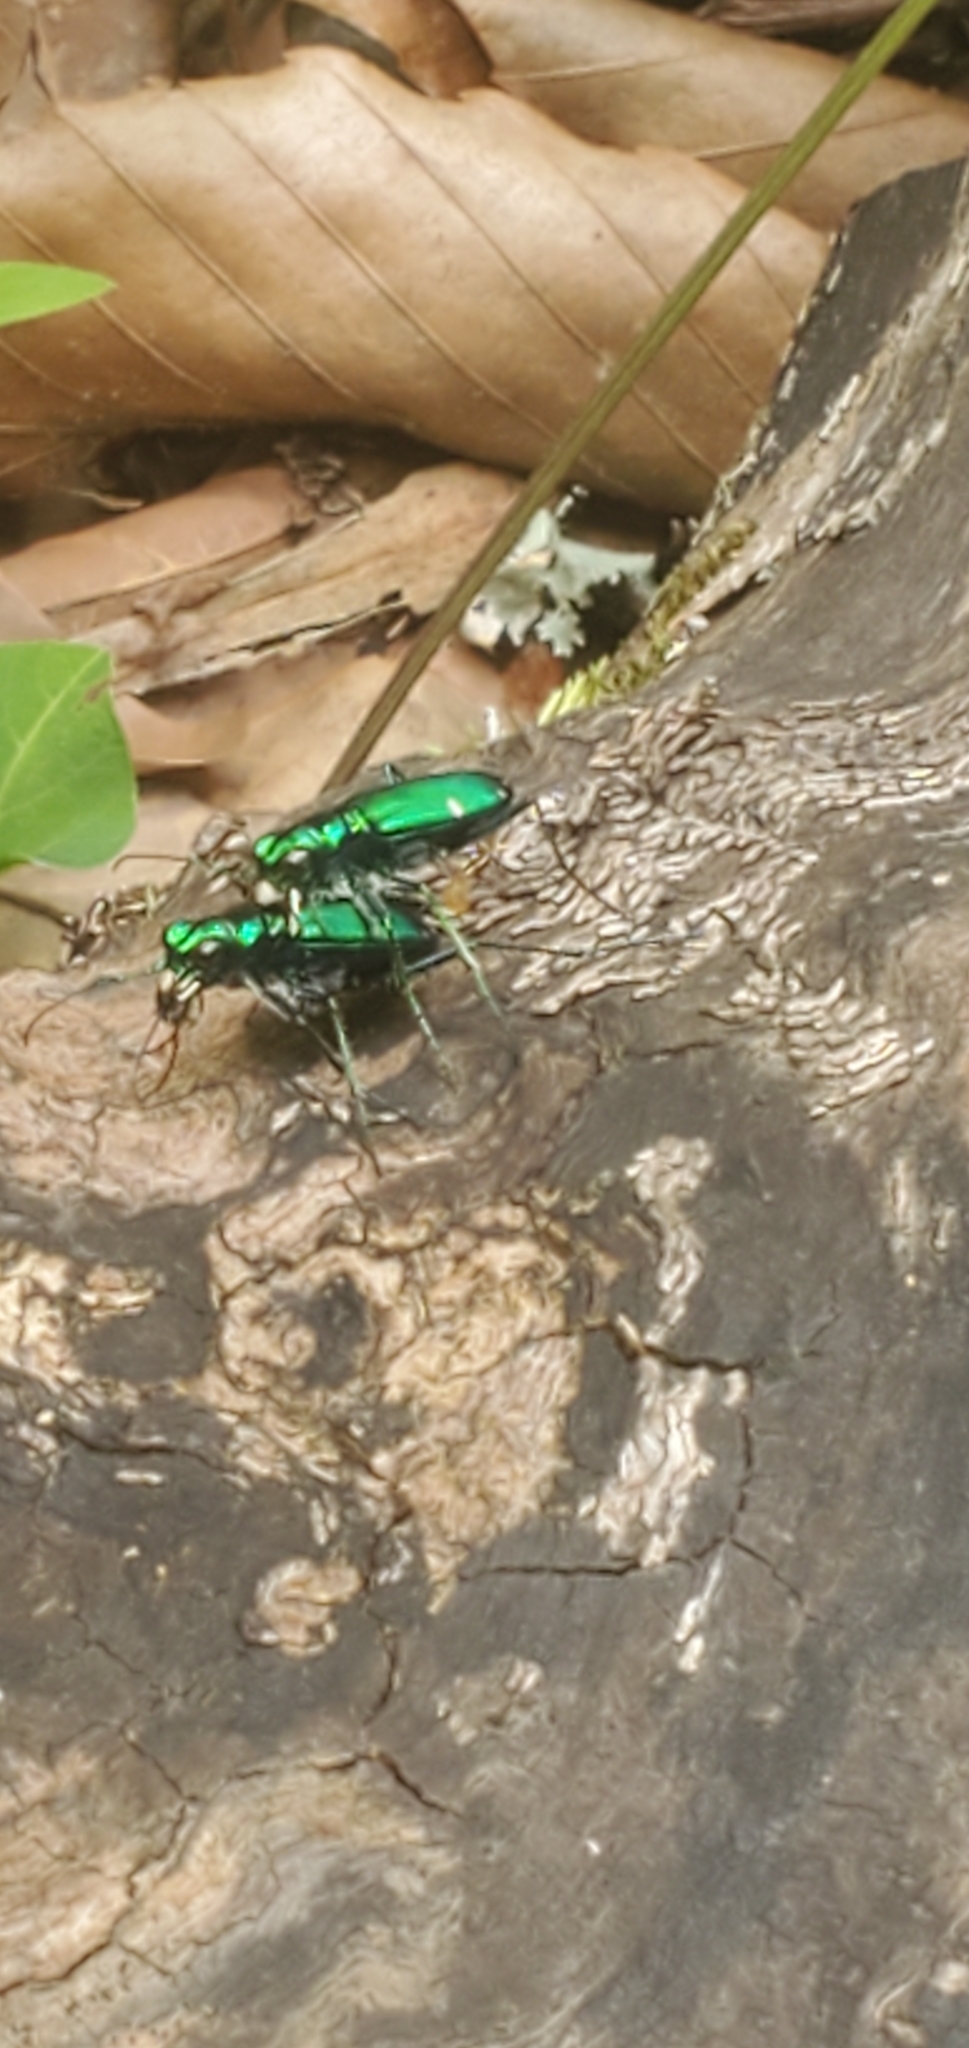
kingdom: Animalia
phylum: Arthropoda
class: Insecta
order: Coleoptera
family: Carabidae
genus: Cicindela
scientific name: Cicindela sexguttata
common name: Six-spotted tiger beetle
